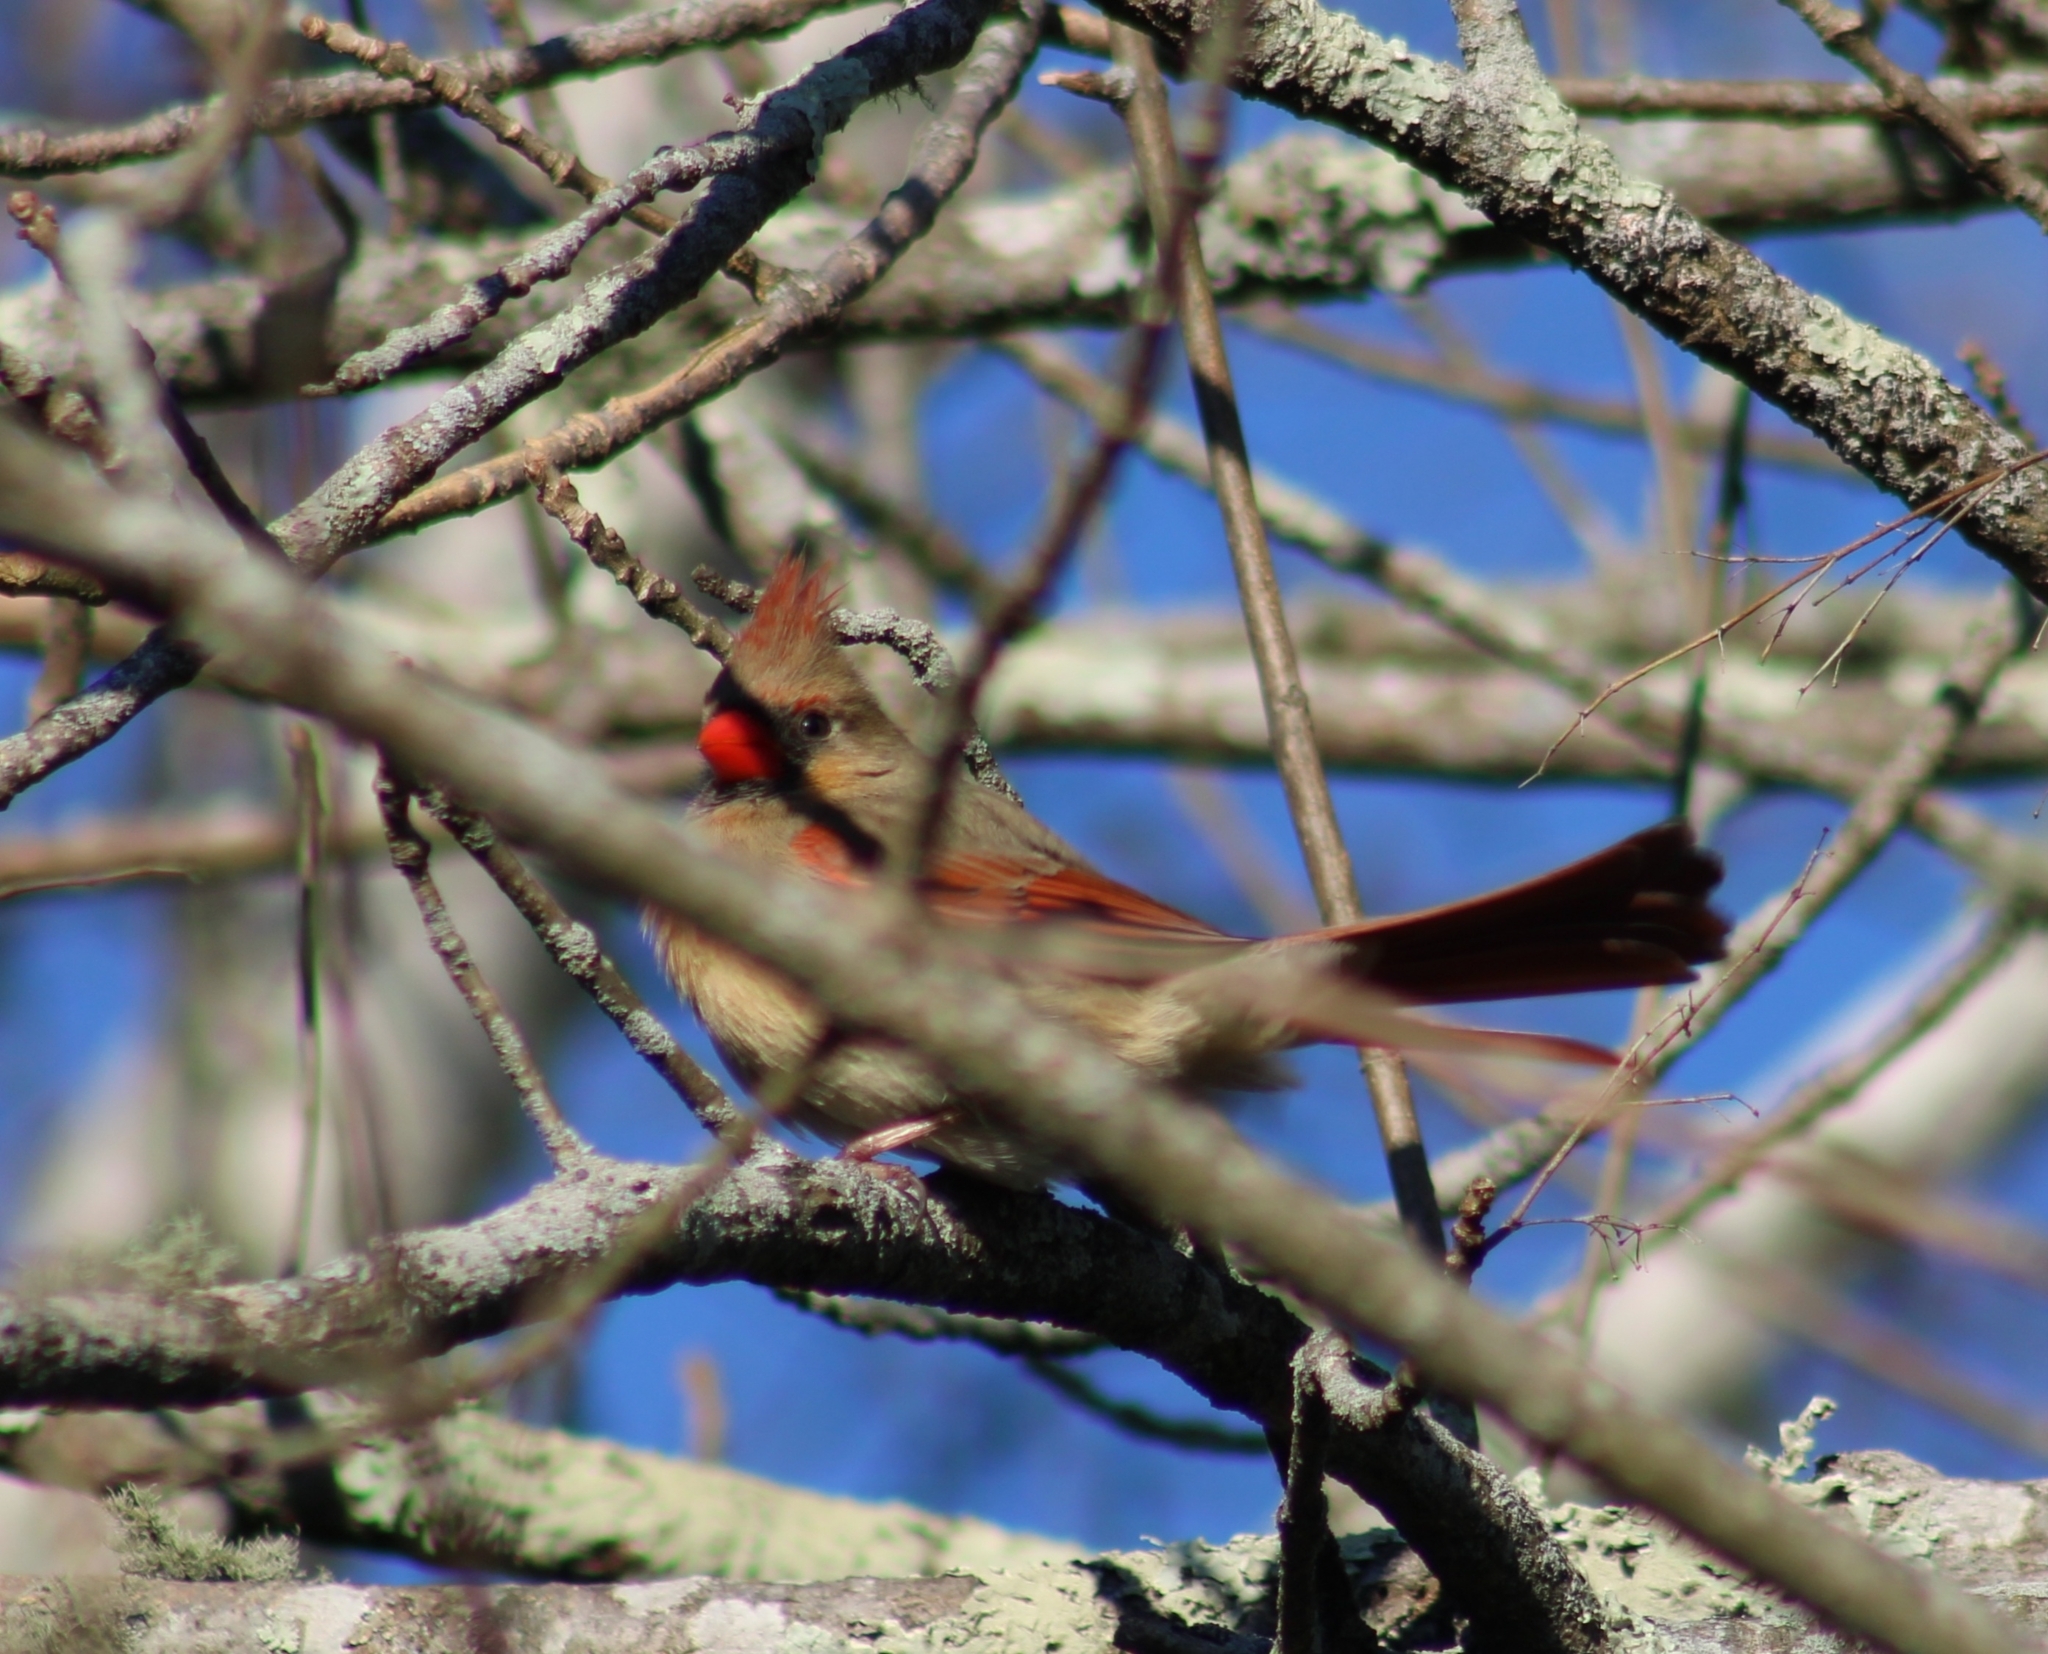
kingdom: Animalia
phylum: Chordata
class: Aves
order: Passeriformes
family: Cardinalidae
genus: Cardinalis
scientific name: Cardinalis cardinalis
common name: Northern cardinal
